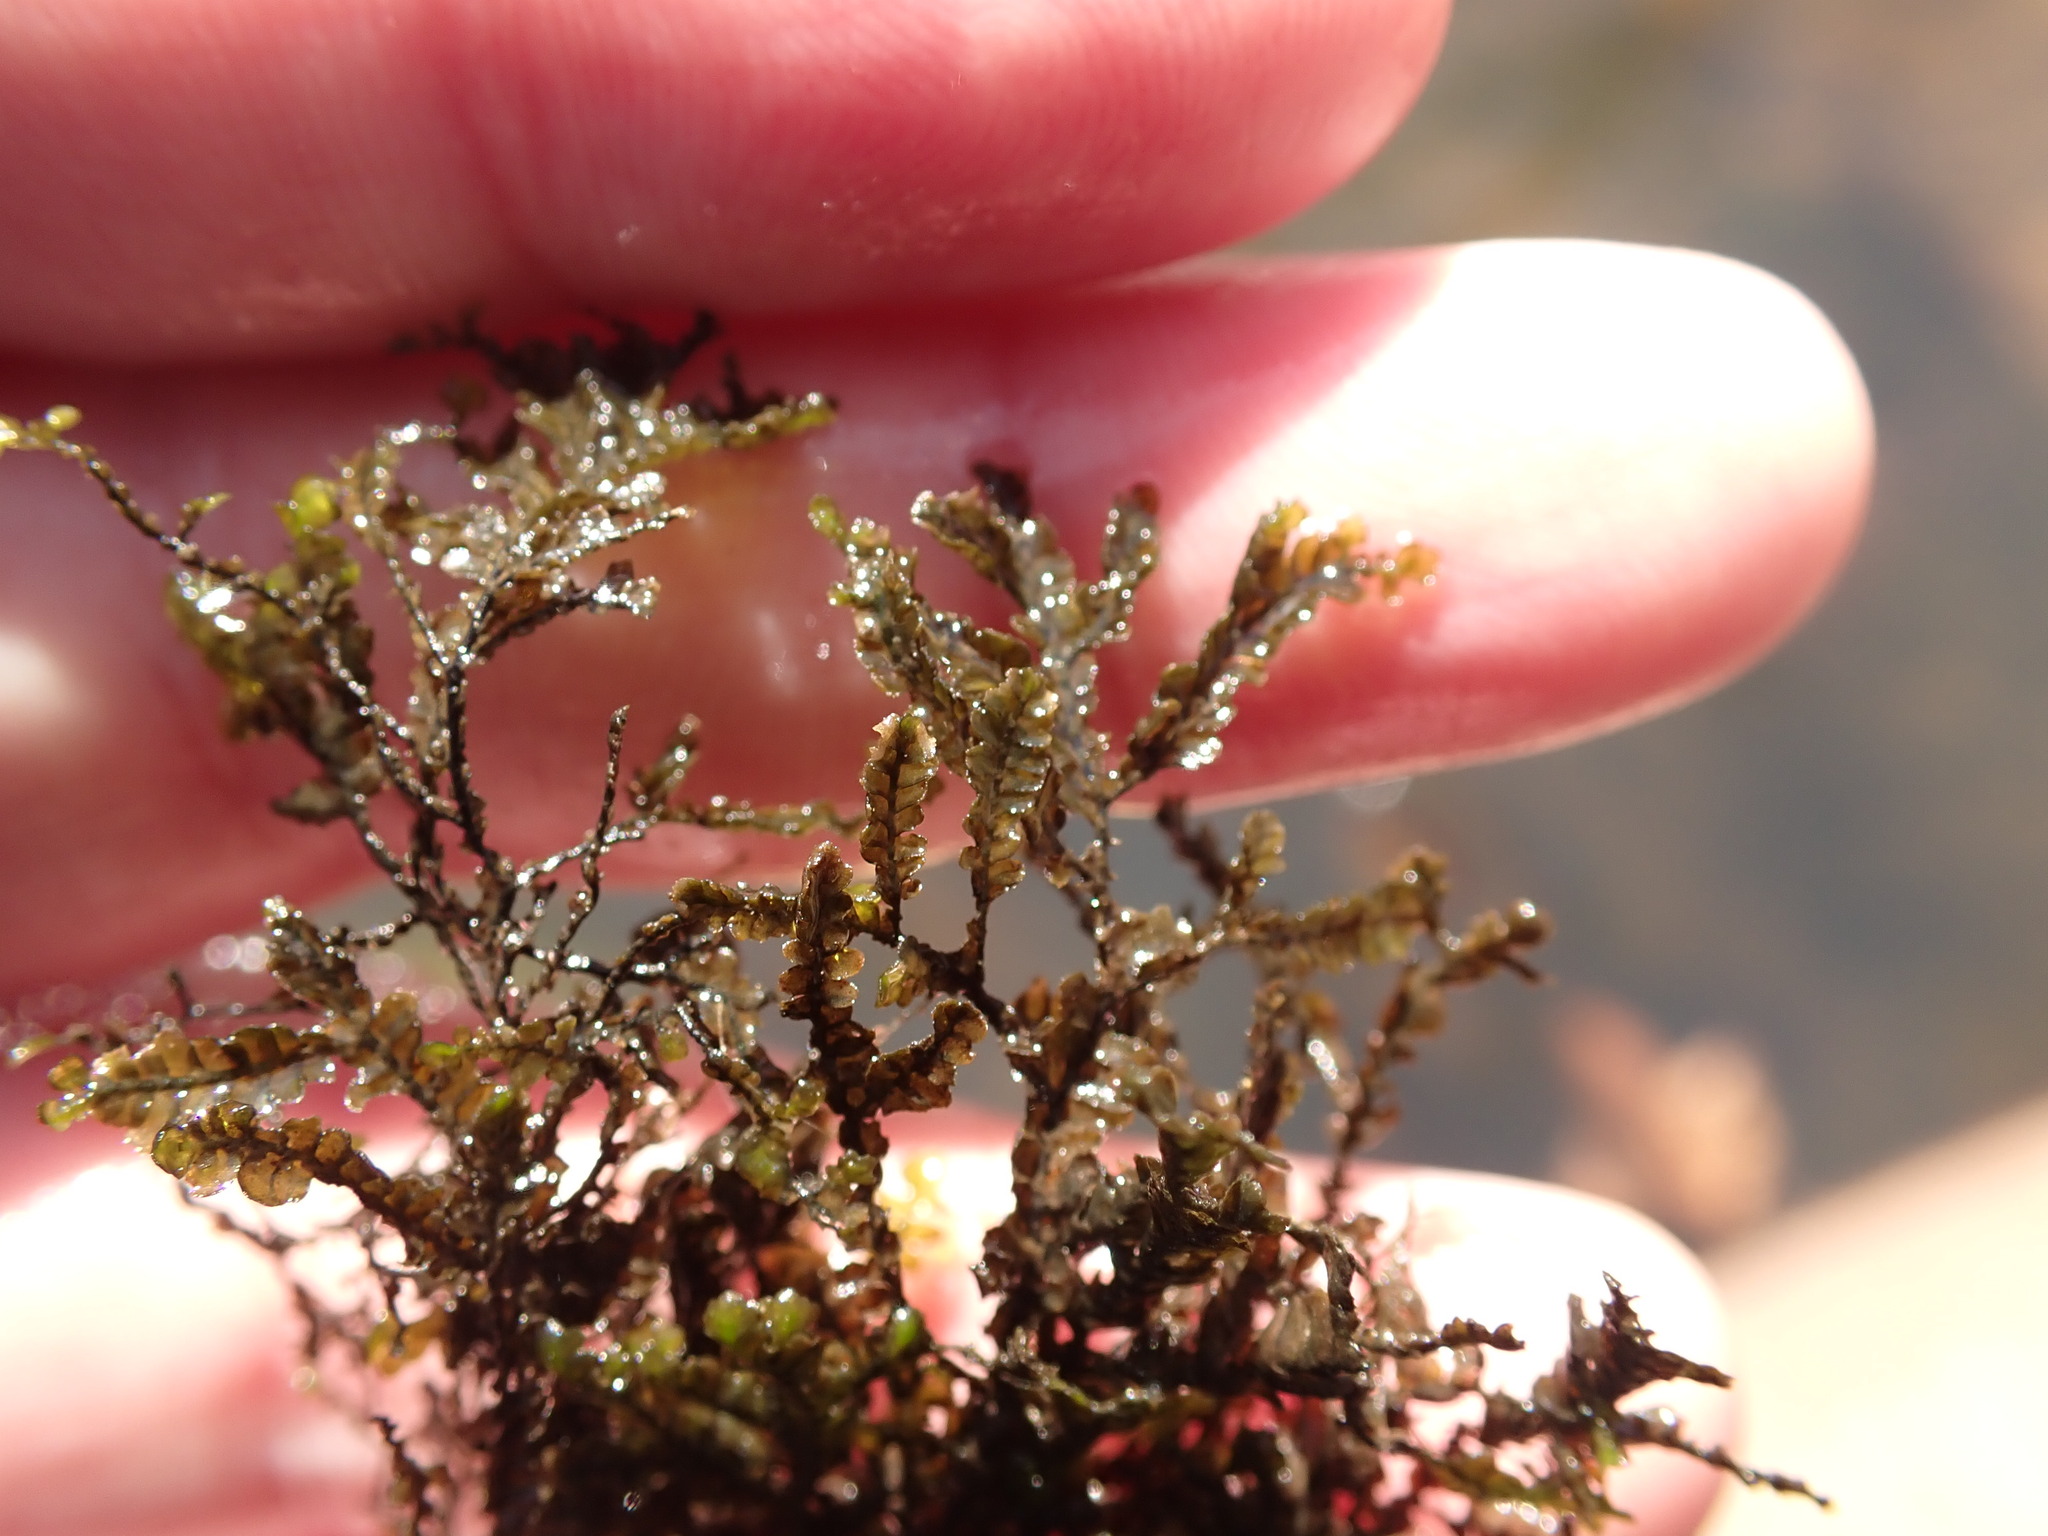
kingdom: Plantae
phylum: Marchantiophyta
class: Jungermanniopsida
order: Porellales
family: Porellaceae
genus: Porella
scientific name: Porella pinnata
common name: Pinnate scalewort
